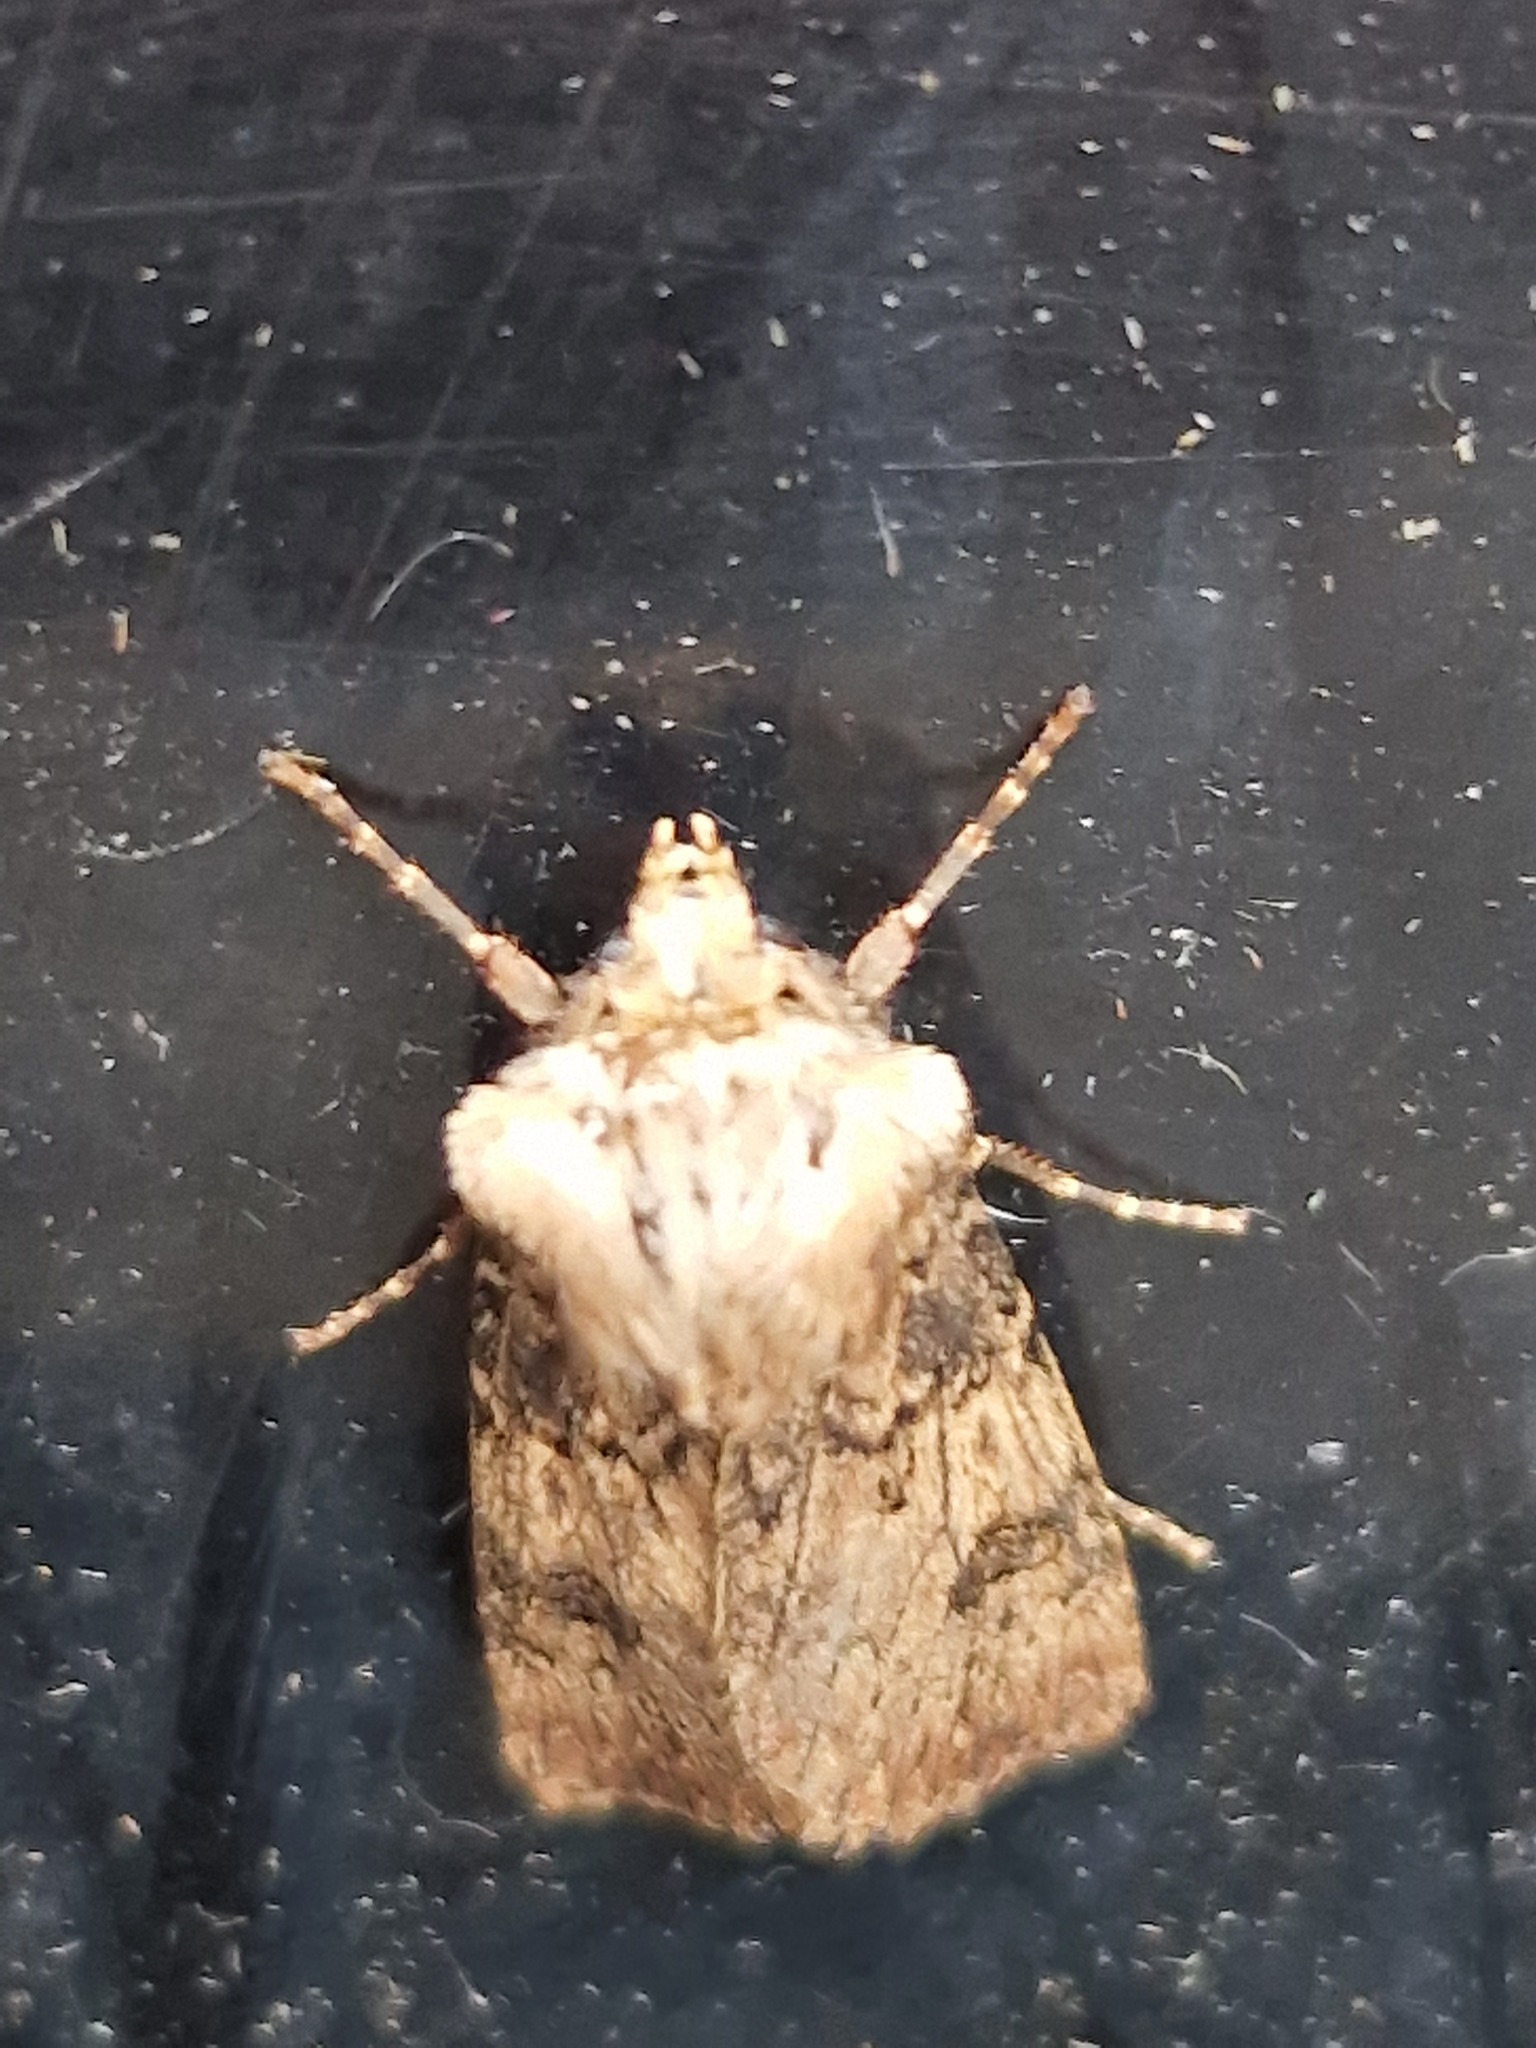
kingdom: Animalia
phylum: Arthropoda
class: Insecta
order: Lepidoptera
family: Noctuidae
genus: Agrotis
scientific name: Agrotis puta
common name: Shuttle-shaped dart
